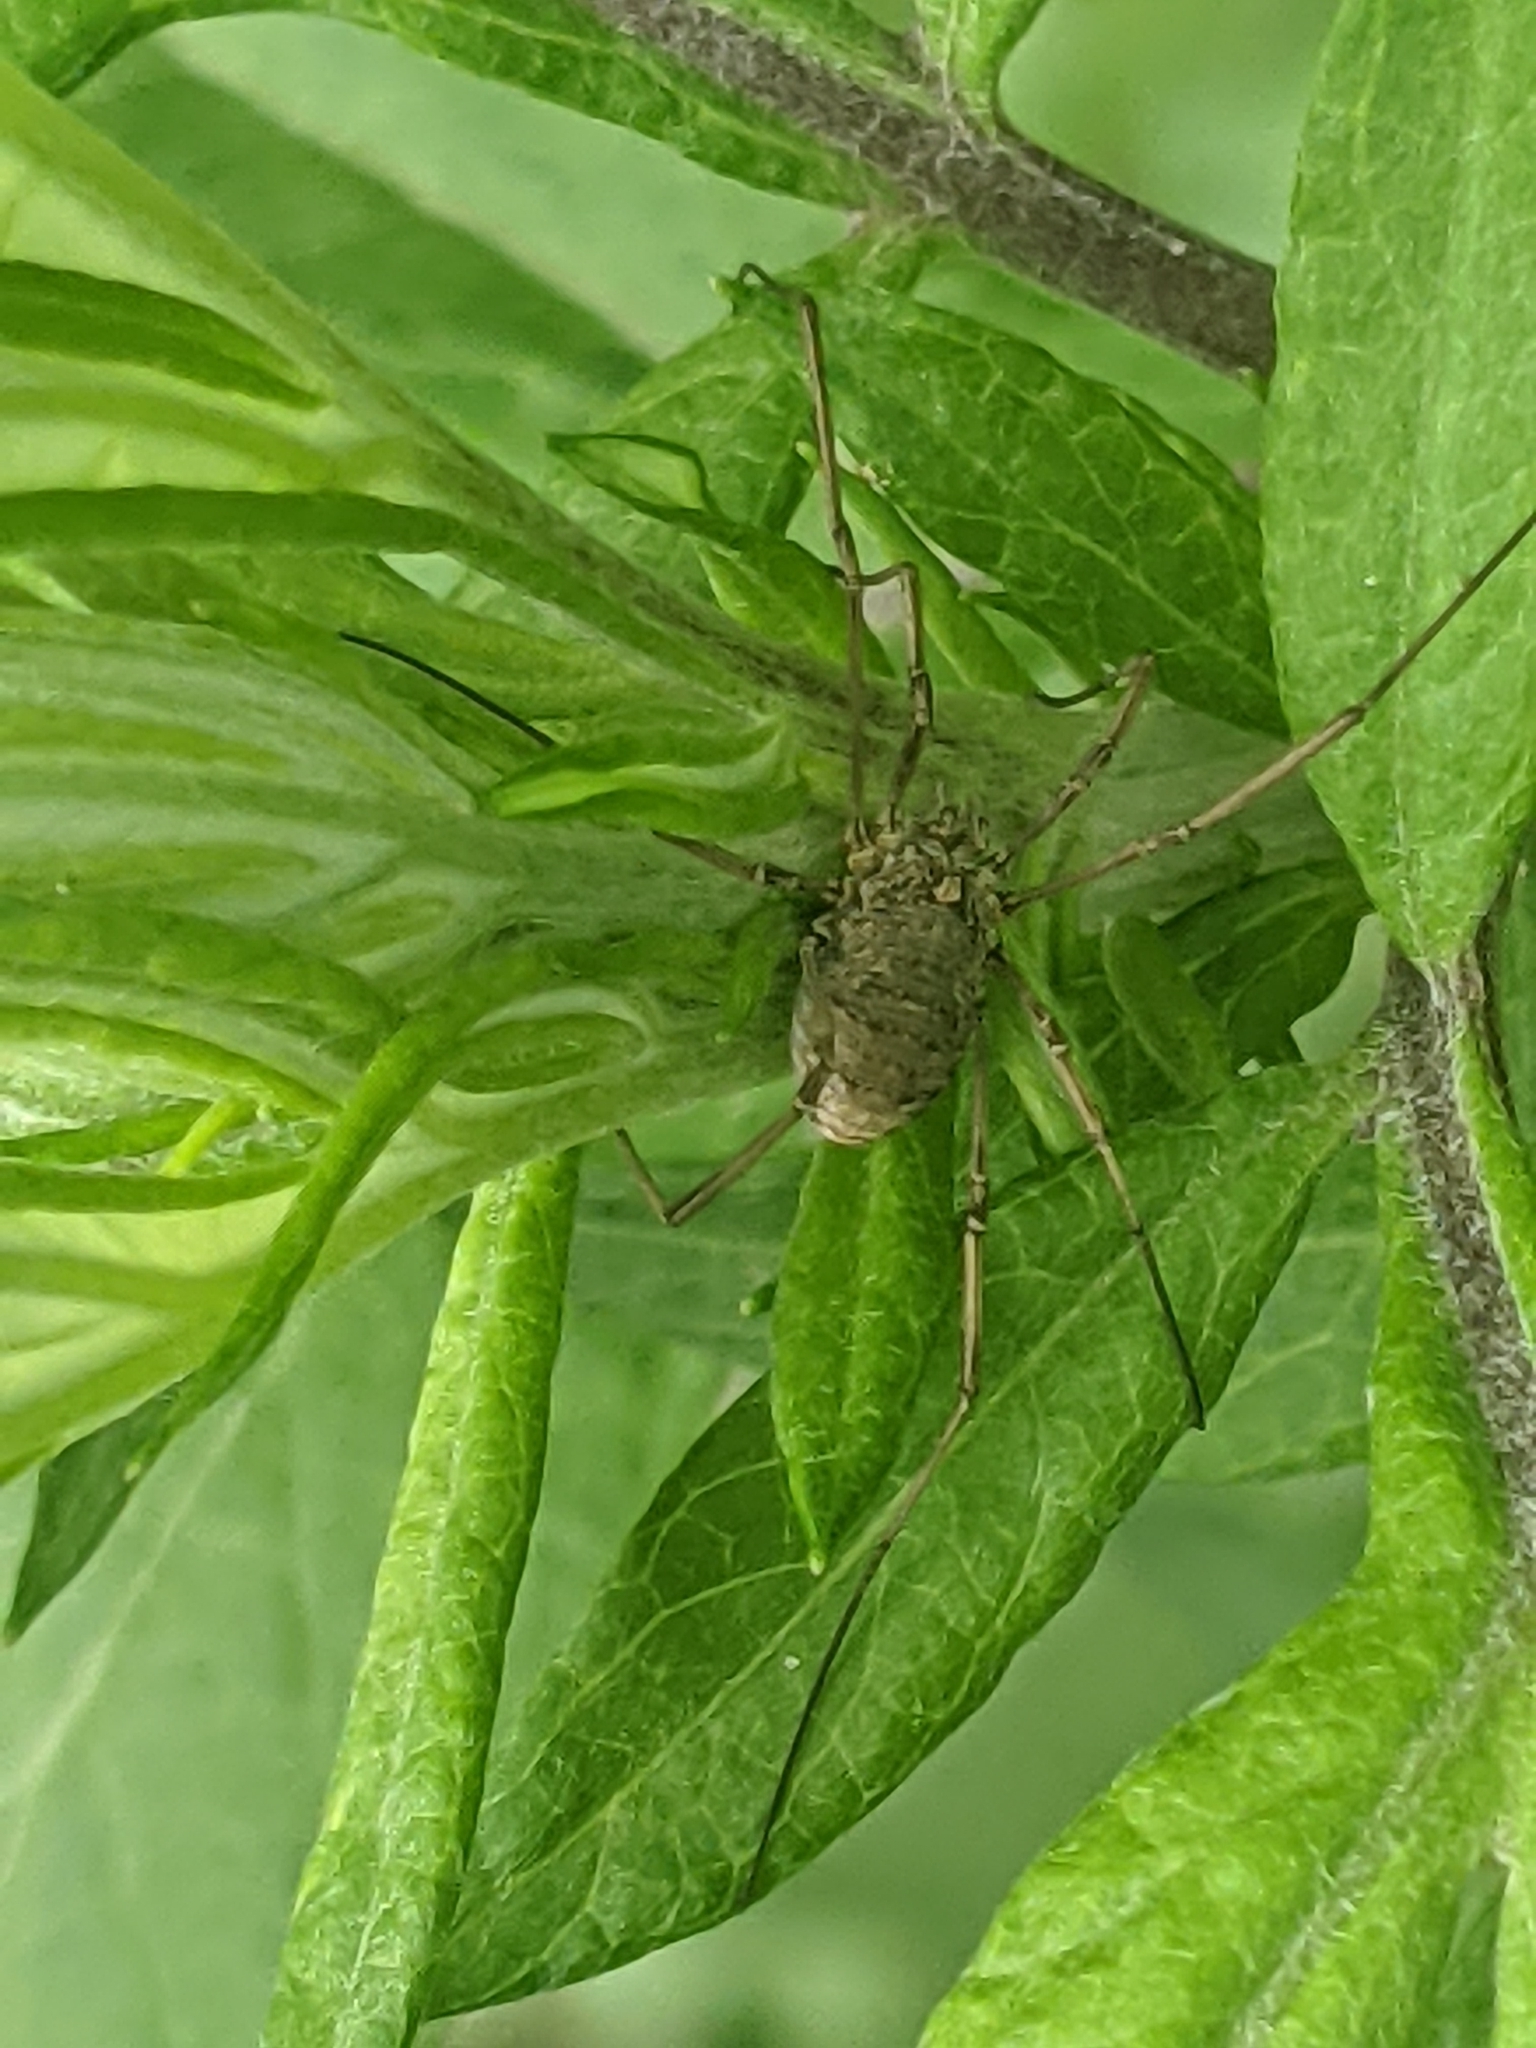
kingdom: Animalia
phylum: Arthropoda
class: Arachnida
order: Opiliones
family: Phalangiidae
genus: Phalangium
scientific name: Phalangium opilio
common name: Daddy longleg
